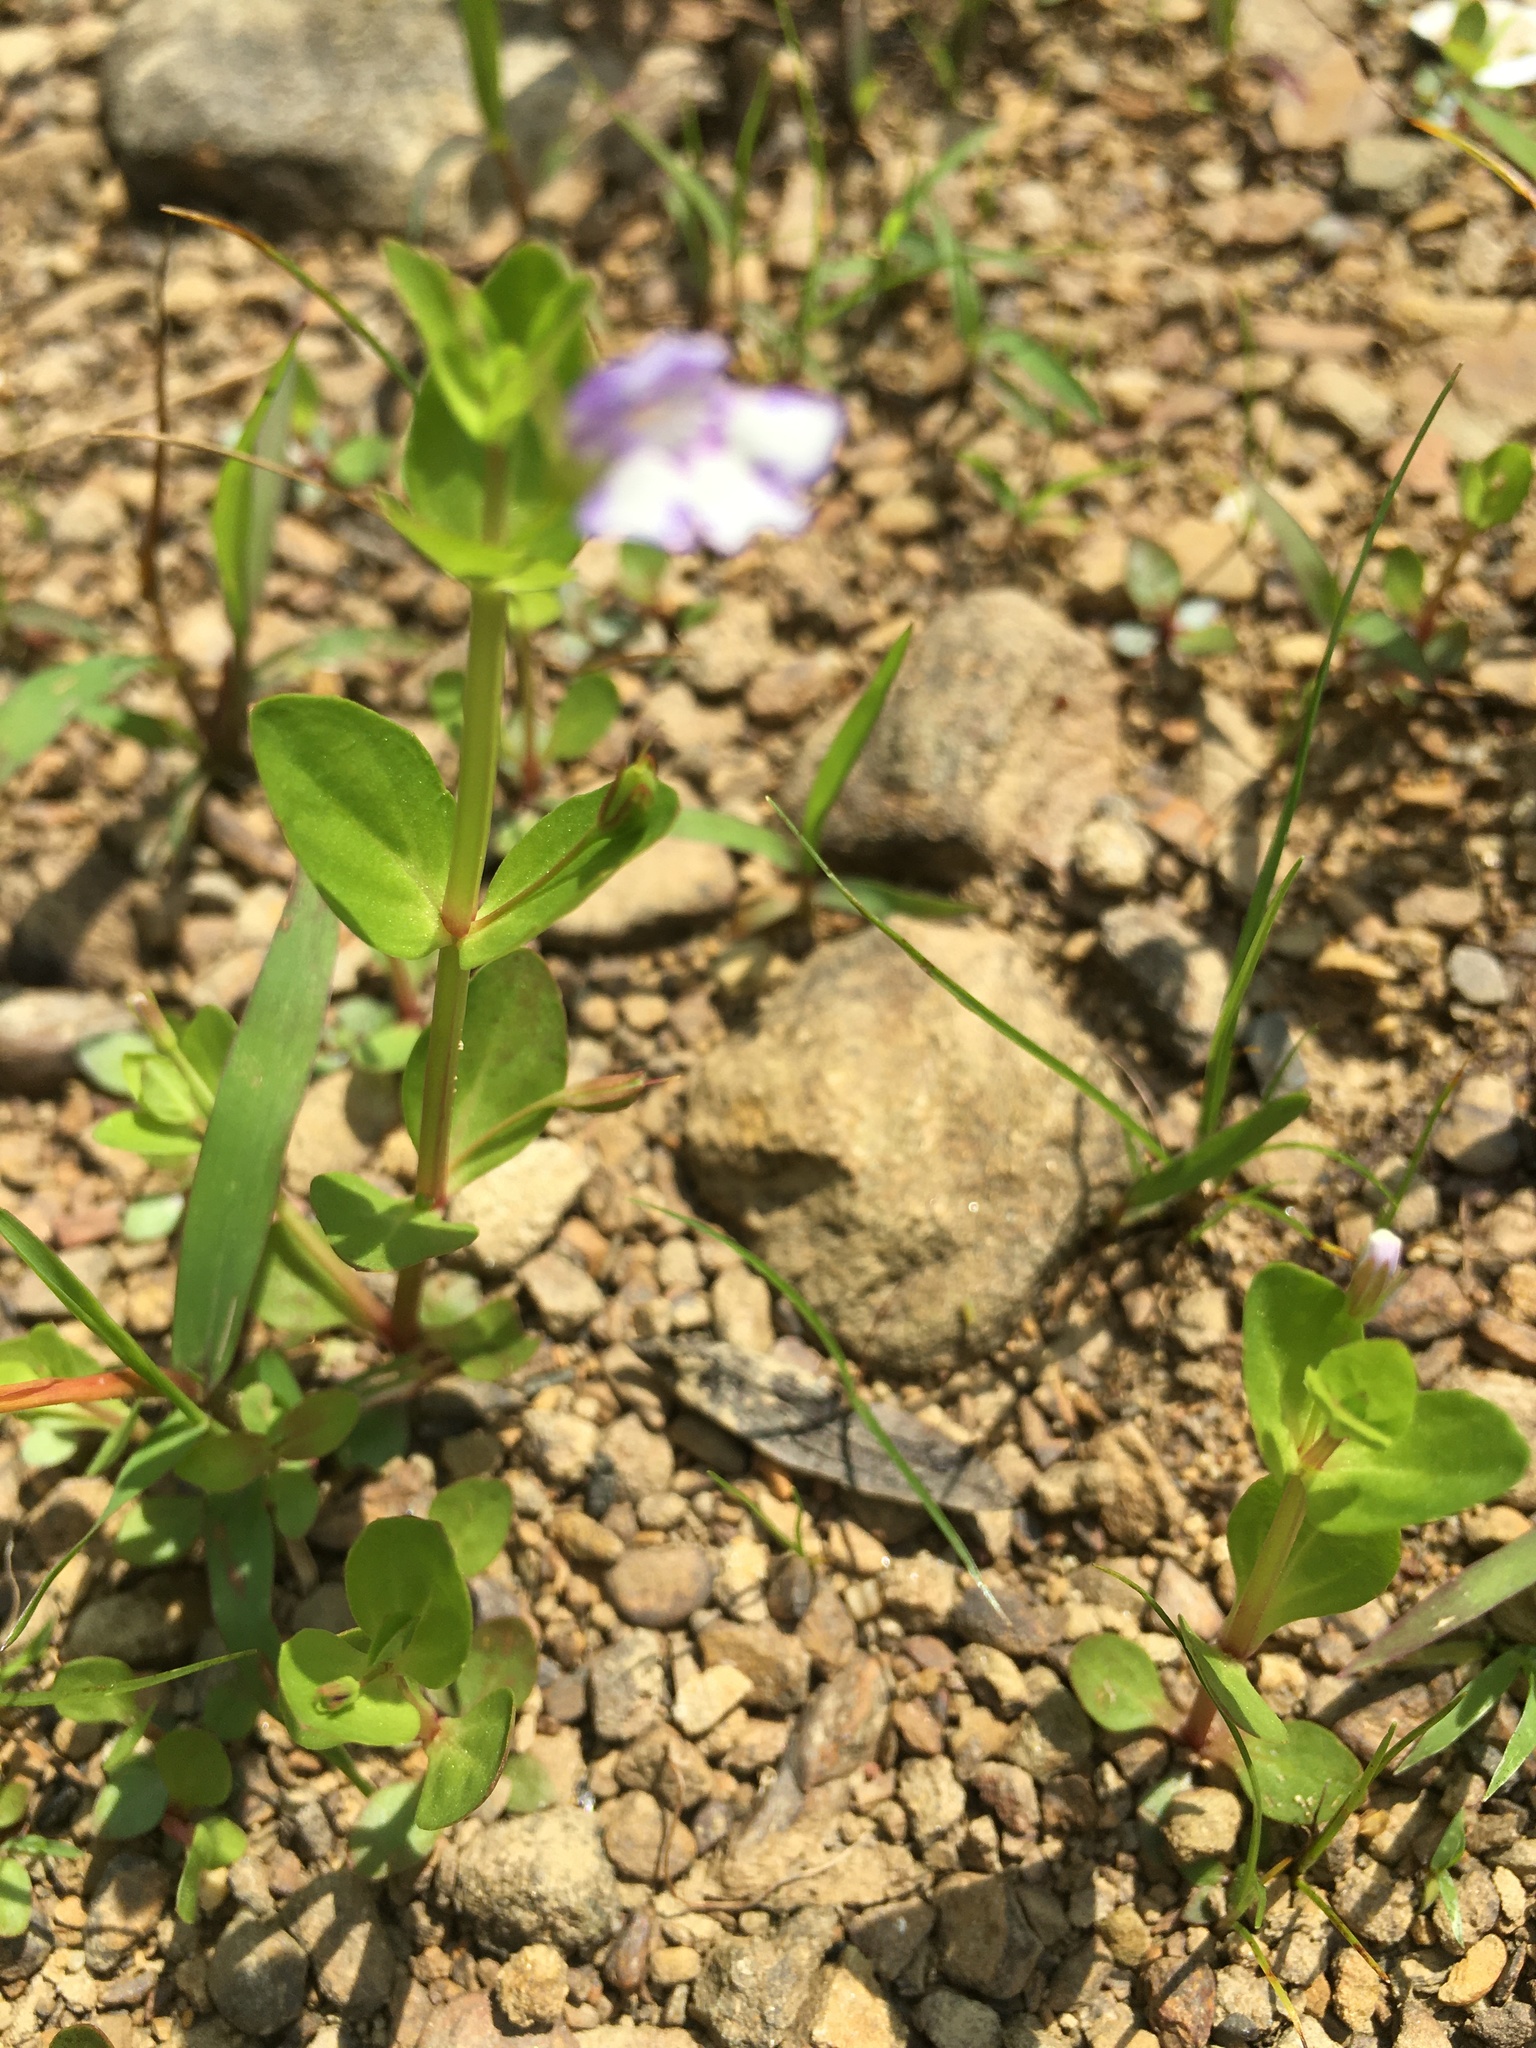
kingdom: Plantae
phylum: Tracheophyta
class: Magnoliopsida
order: Lamiales
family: Linderniaceae
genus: Lindernia
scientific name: Lindernia dubia
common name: Annual false pimpernel
